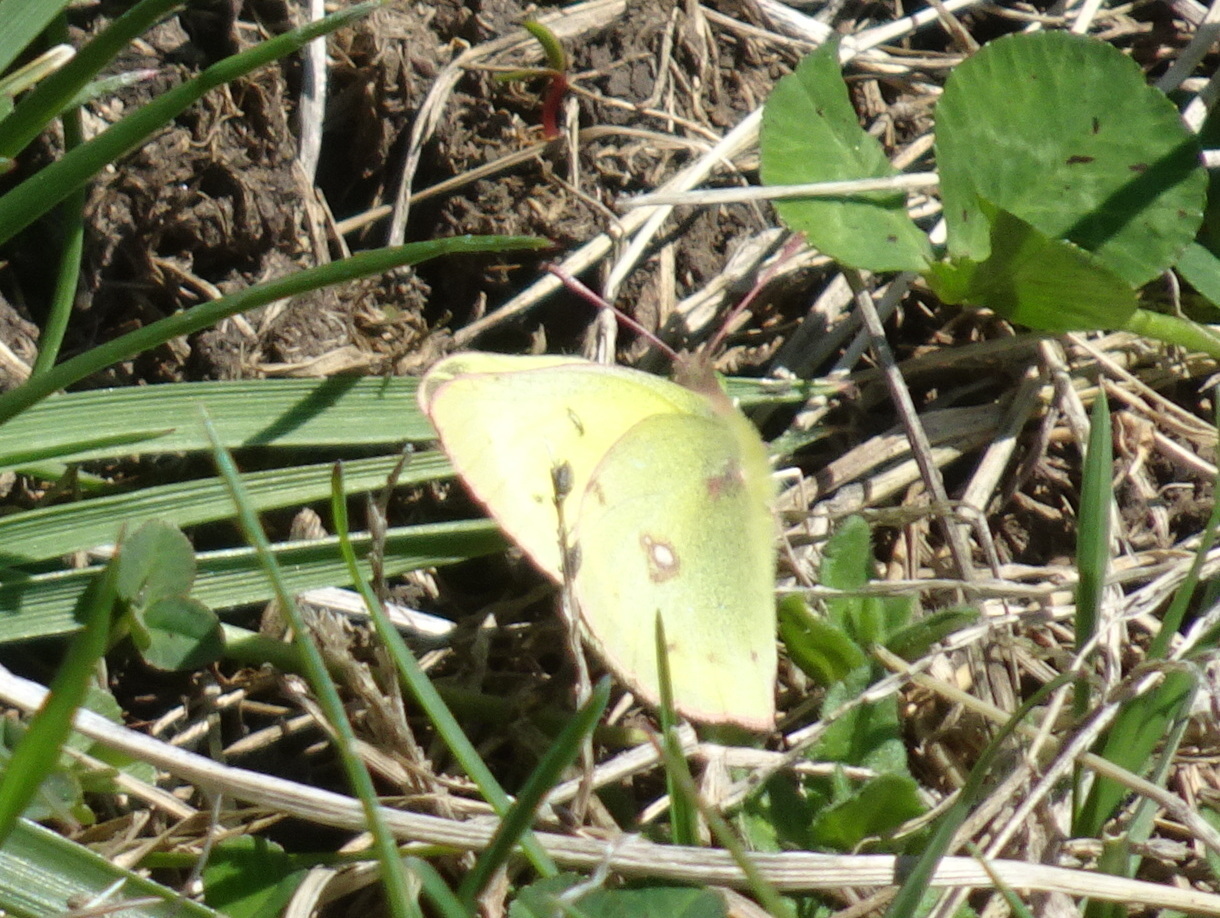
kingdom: Animalia
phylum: Arthropoda
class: Insecta
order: Lepidoptera
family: Pieridae
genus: Colias
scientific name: Colias philodice
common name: Clouded sulphur
